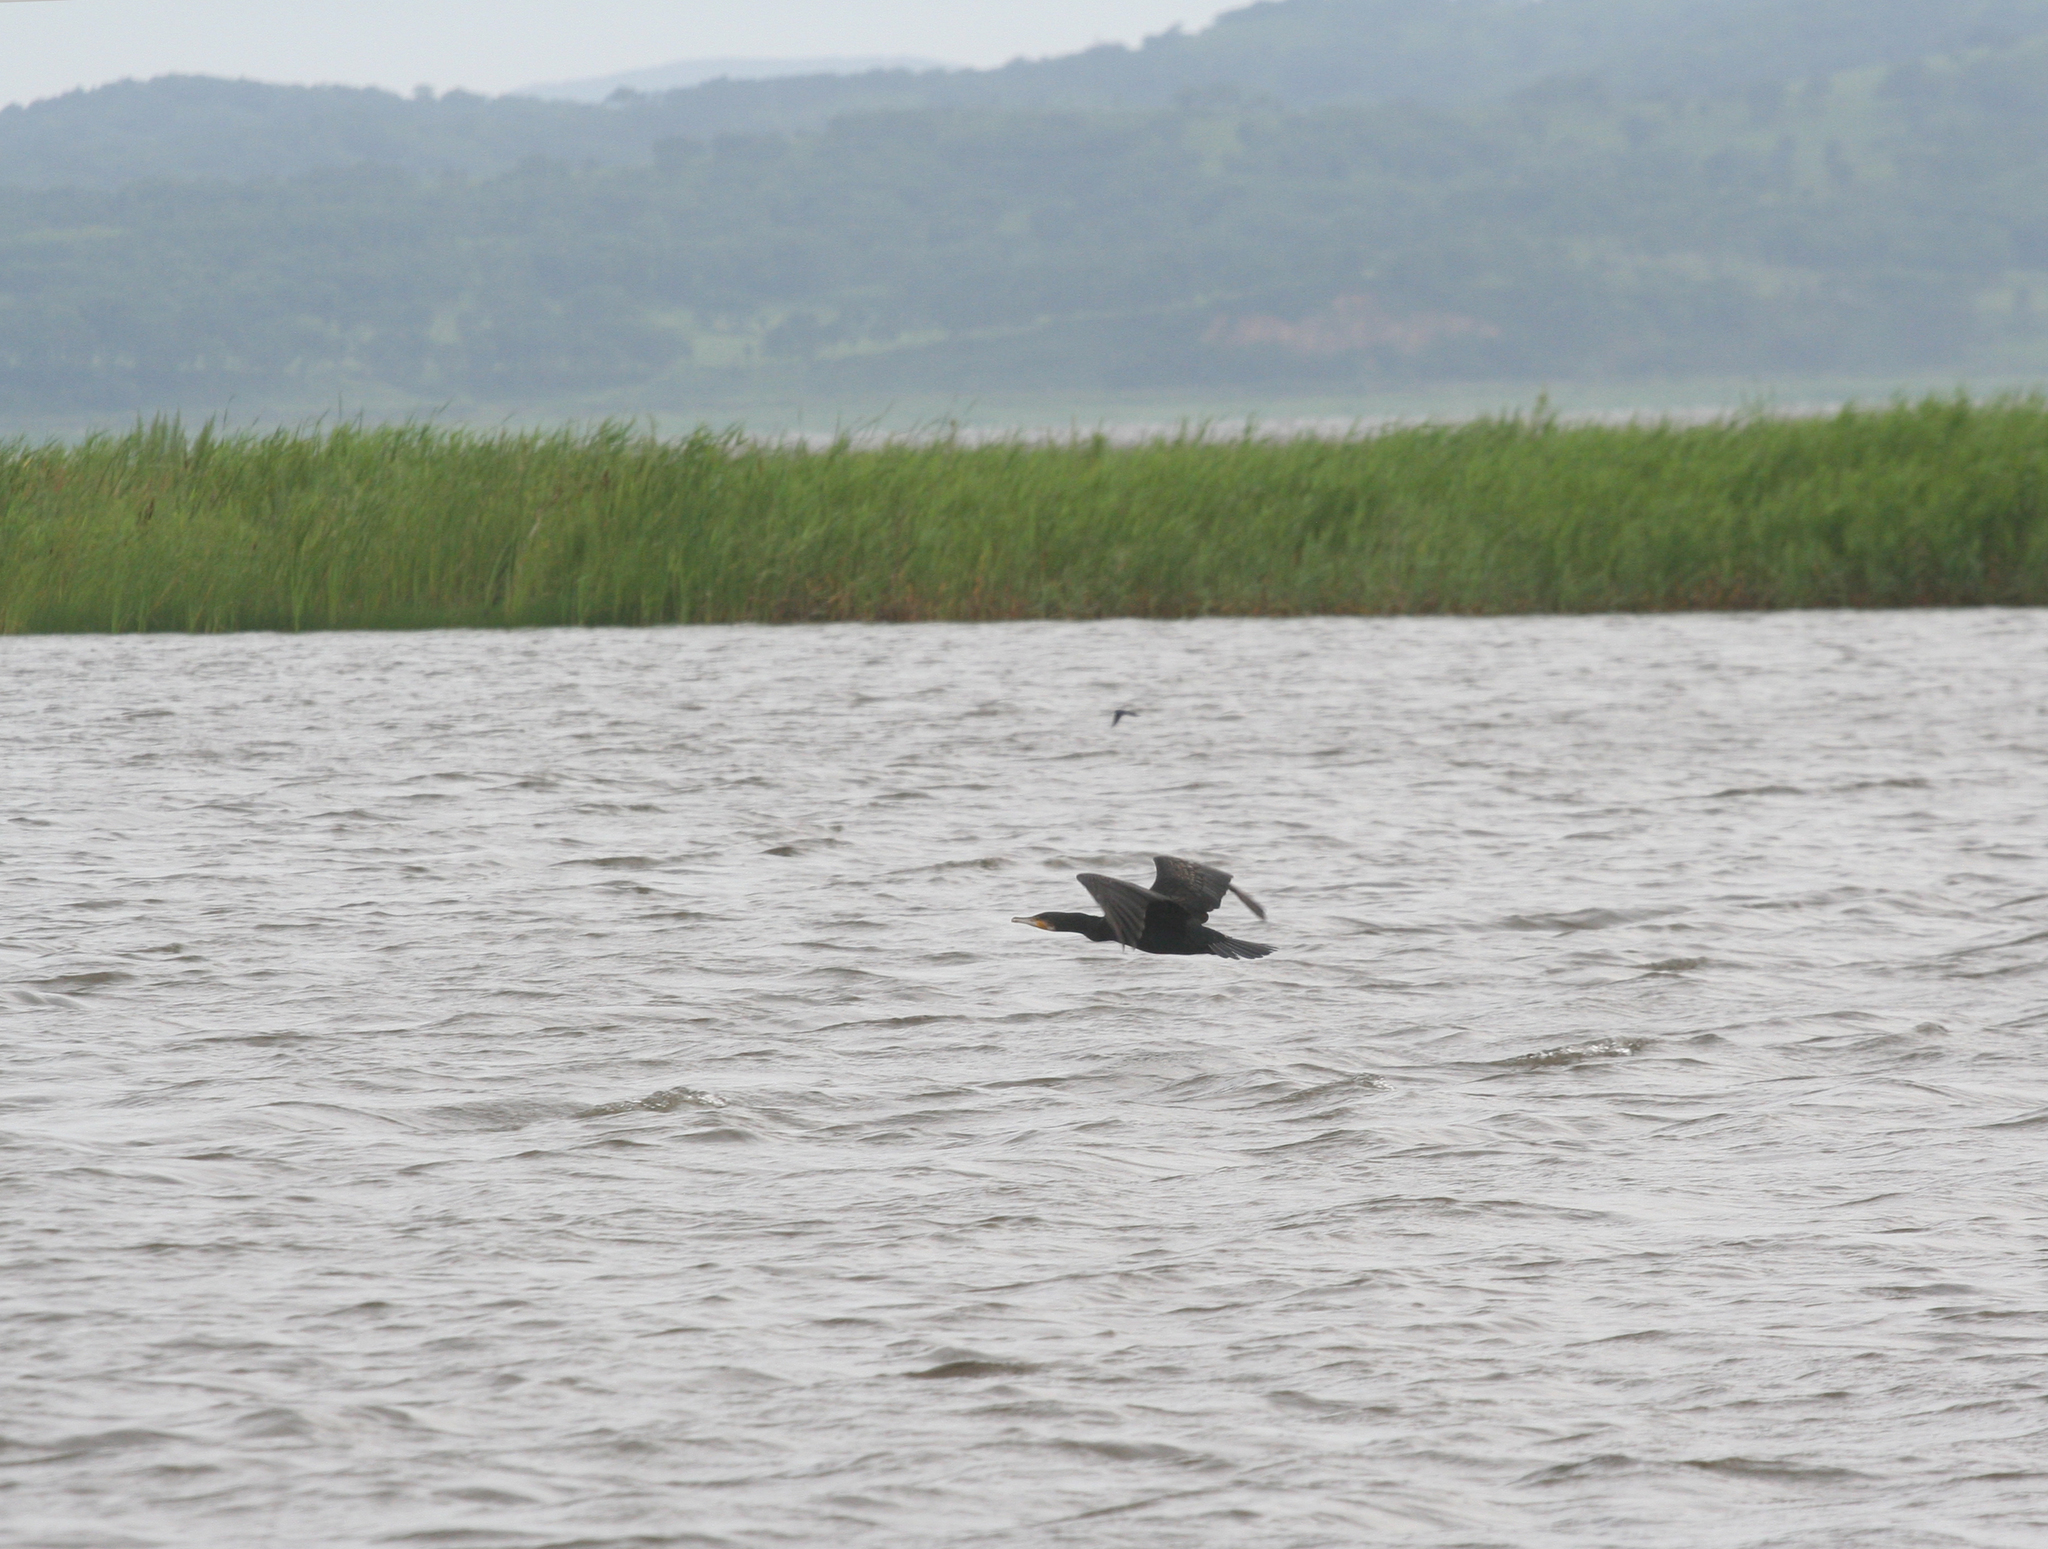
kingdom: Animalia
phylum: Chordata
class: Aves
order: Suliformes
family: Phalacrocoracidae
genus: Phalacrocorax
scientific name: Phalacrocorax carbo
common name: Great cormorant
